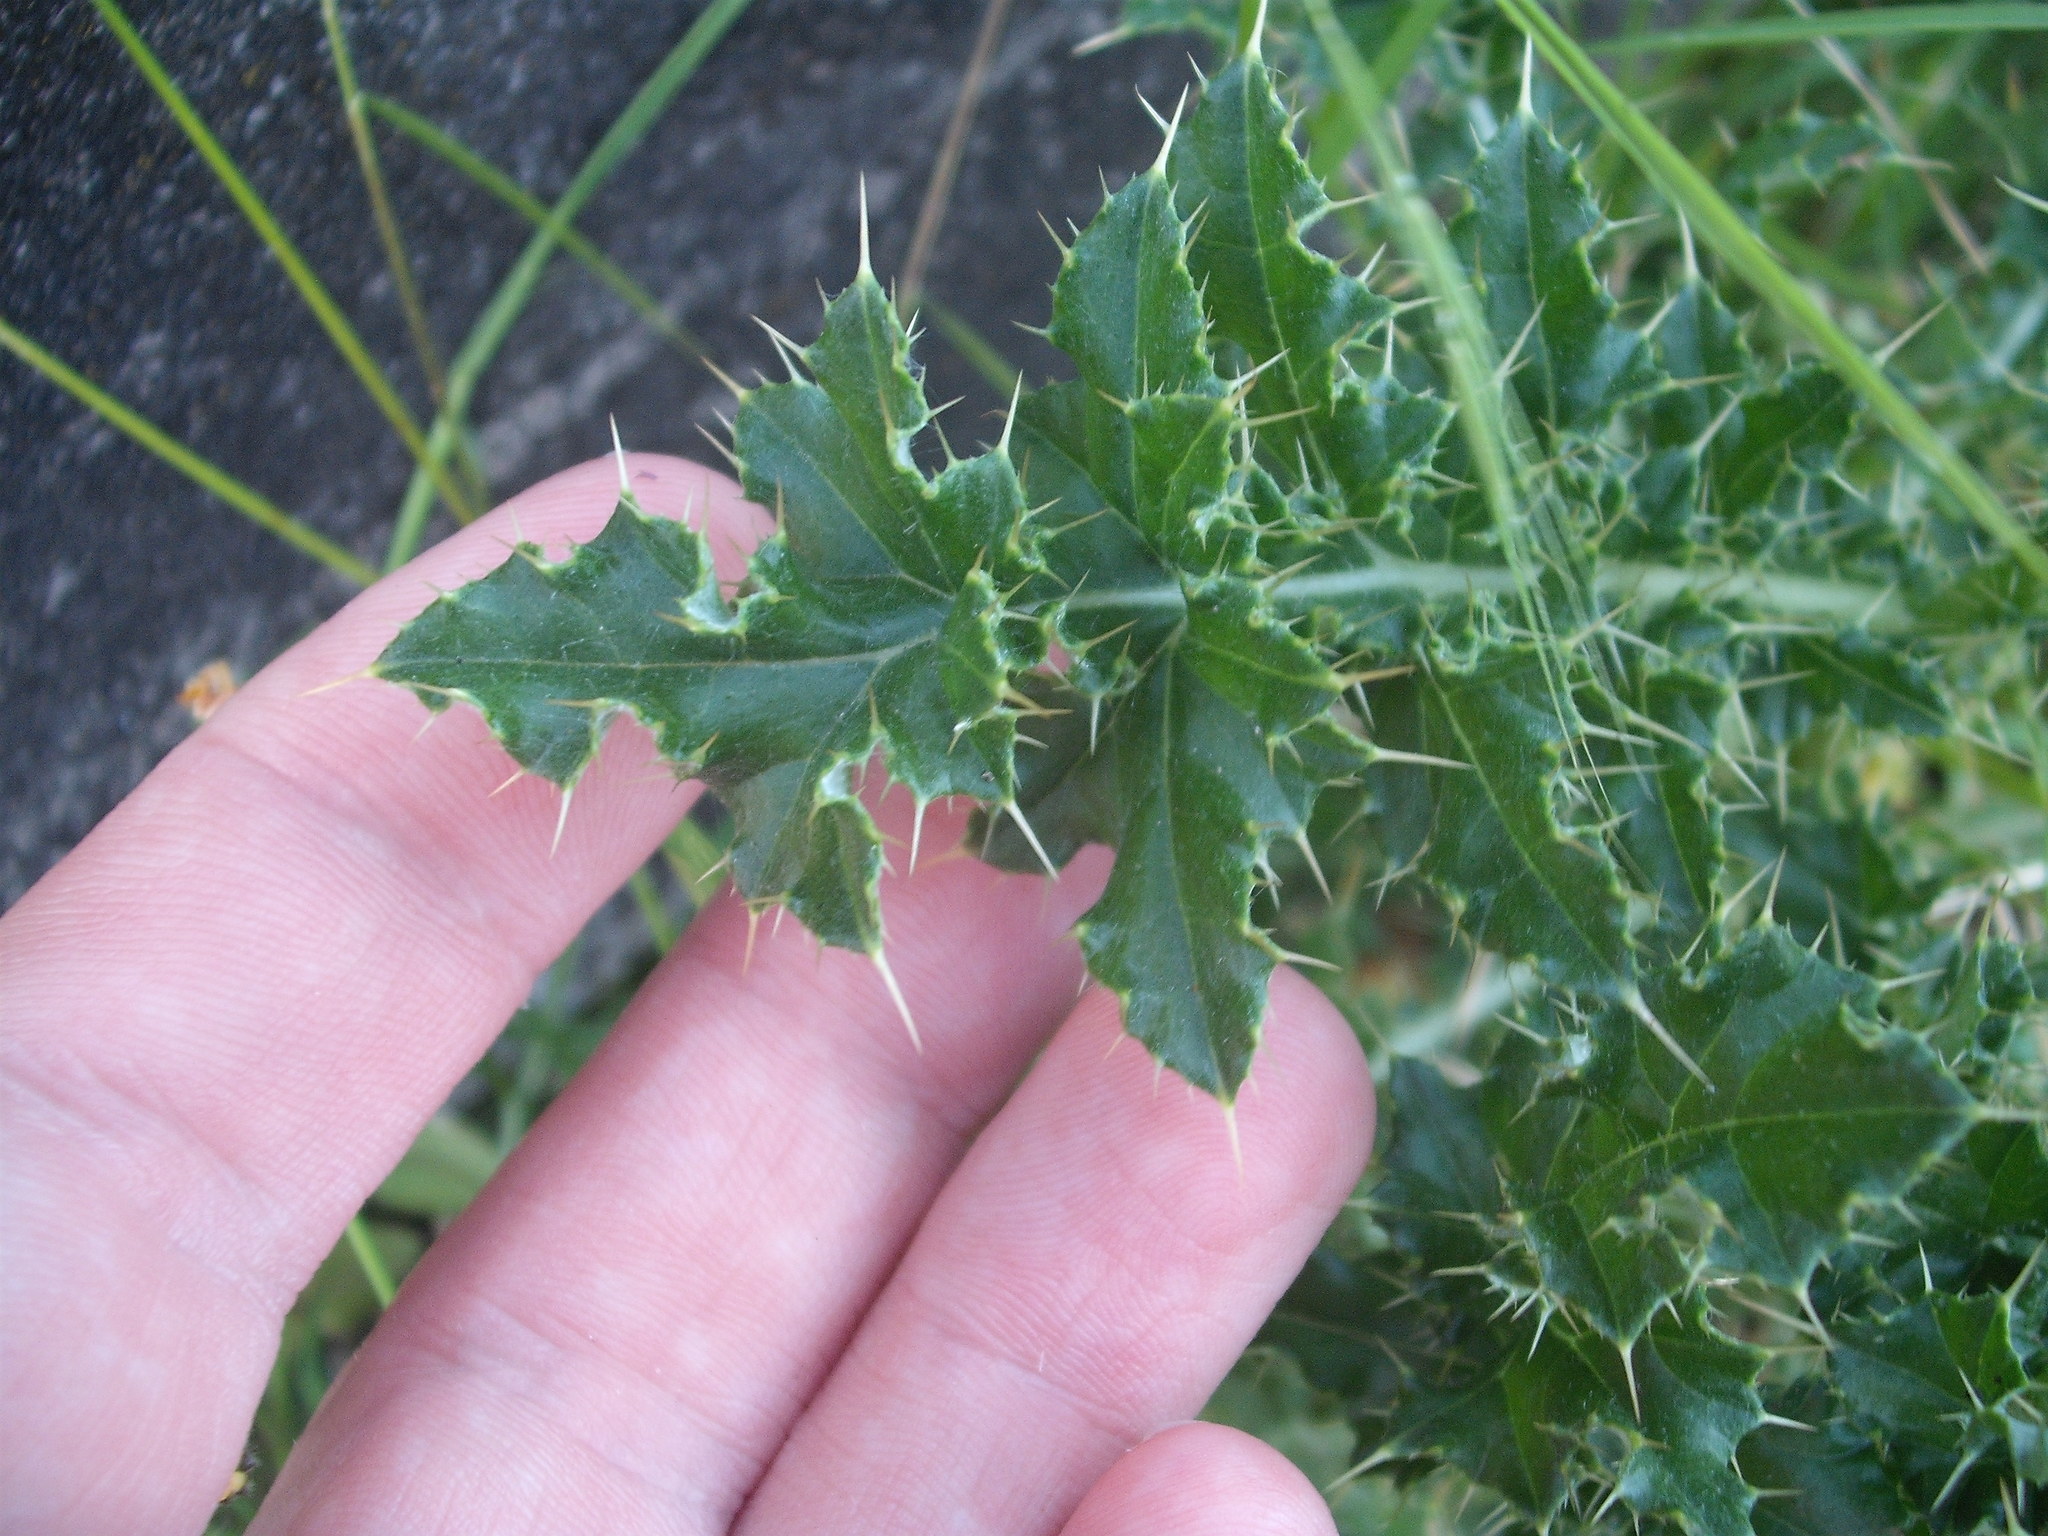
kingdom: Plantae
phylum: Tracheophyta
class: Magnoliopsida
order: Asterales
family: Asteraceae
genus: Cirsium
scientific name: Cirsium arvense
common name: Creeping thistle
